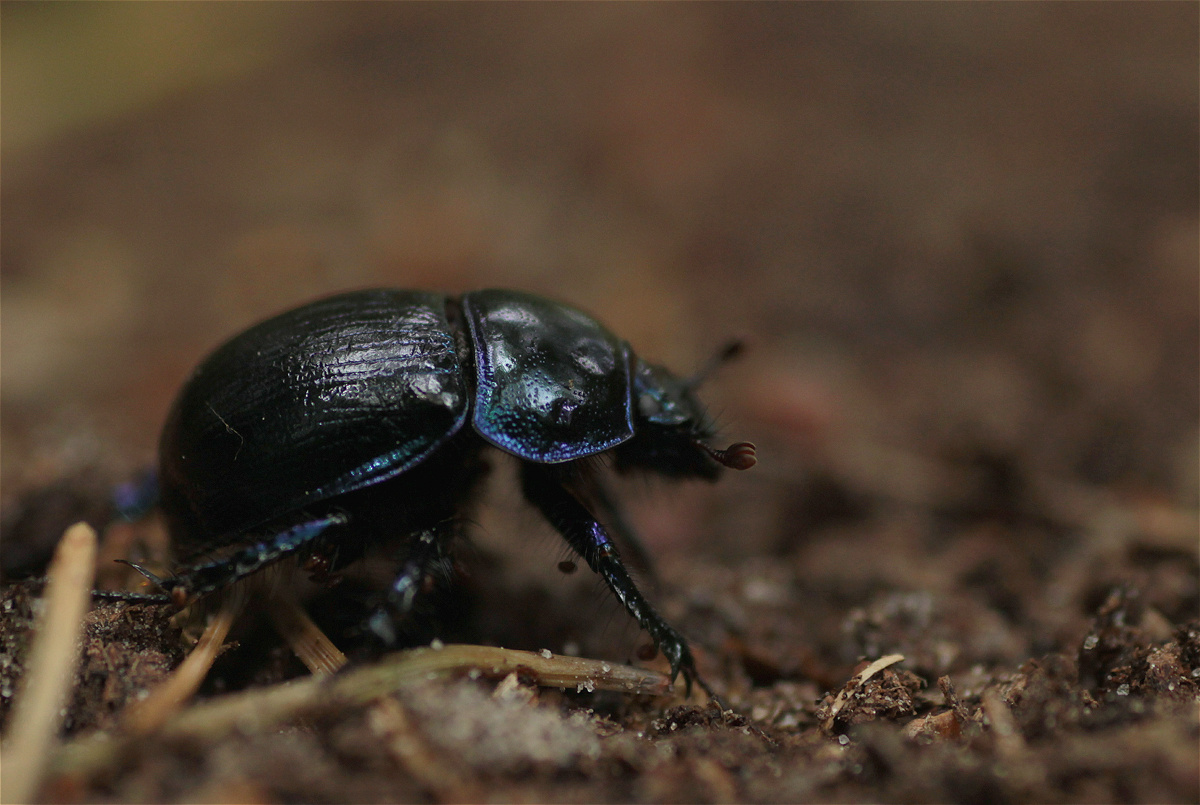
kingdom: Animalia
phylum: Arthropoda
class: Insecta
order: Coleoptera
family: Geotrupidae
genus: Anoplotrupes
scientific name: Anoplotrupes stercorosus
